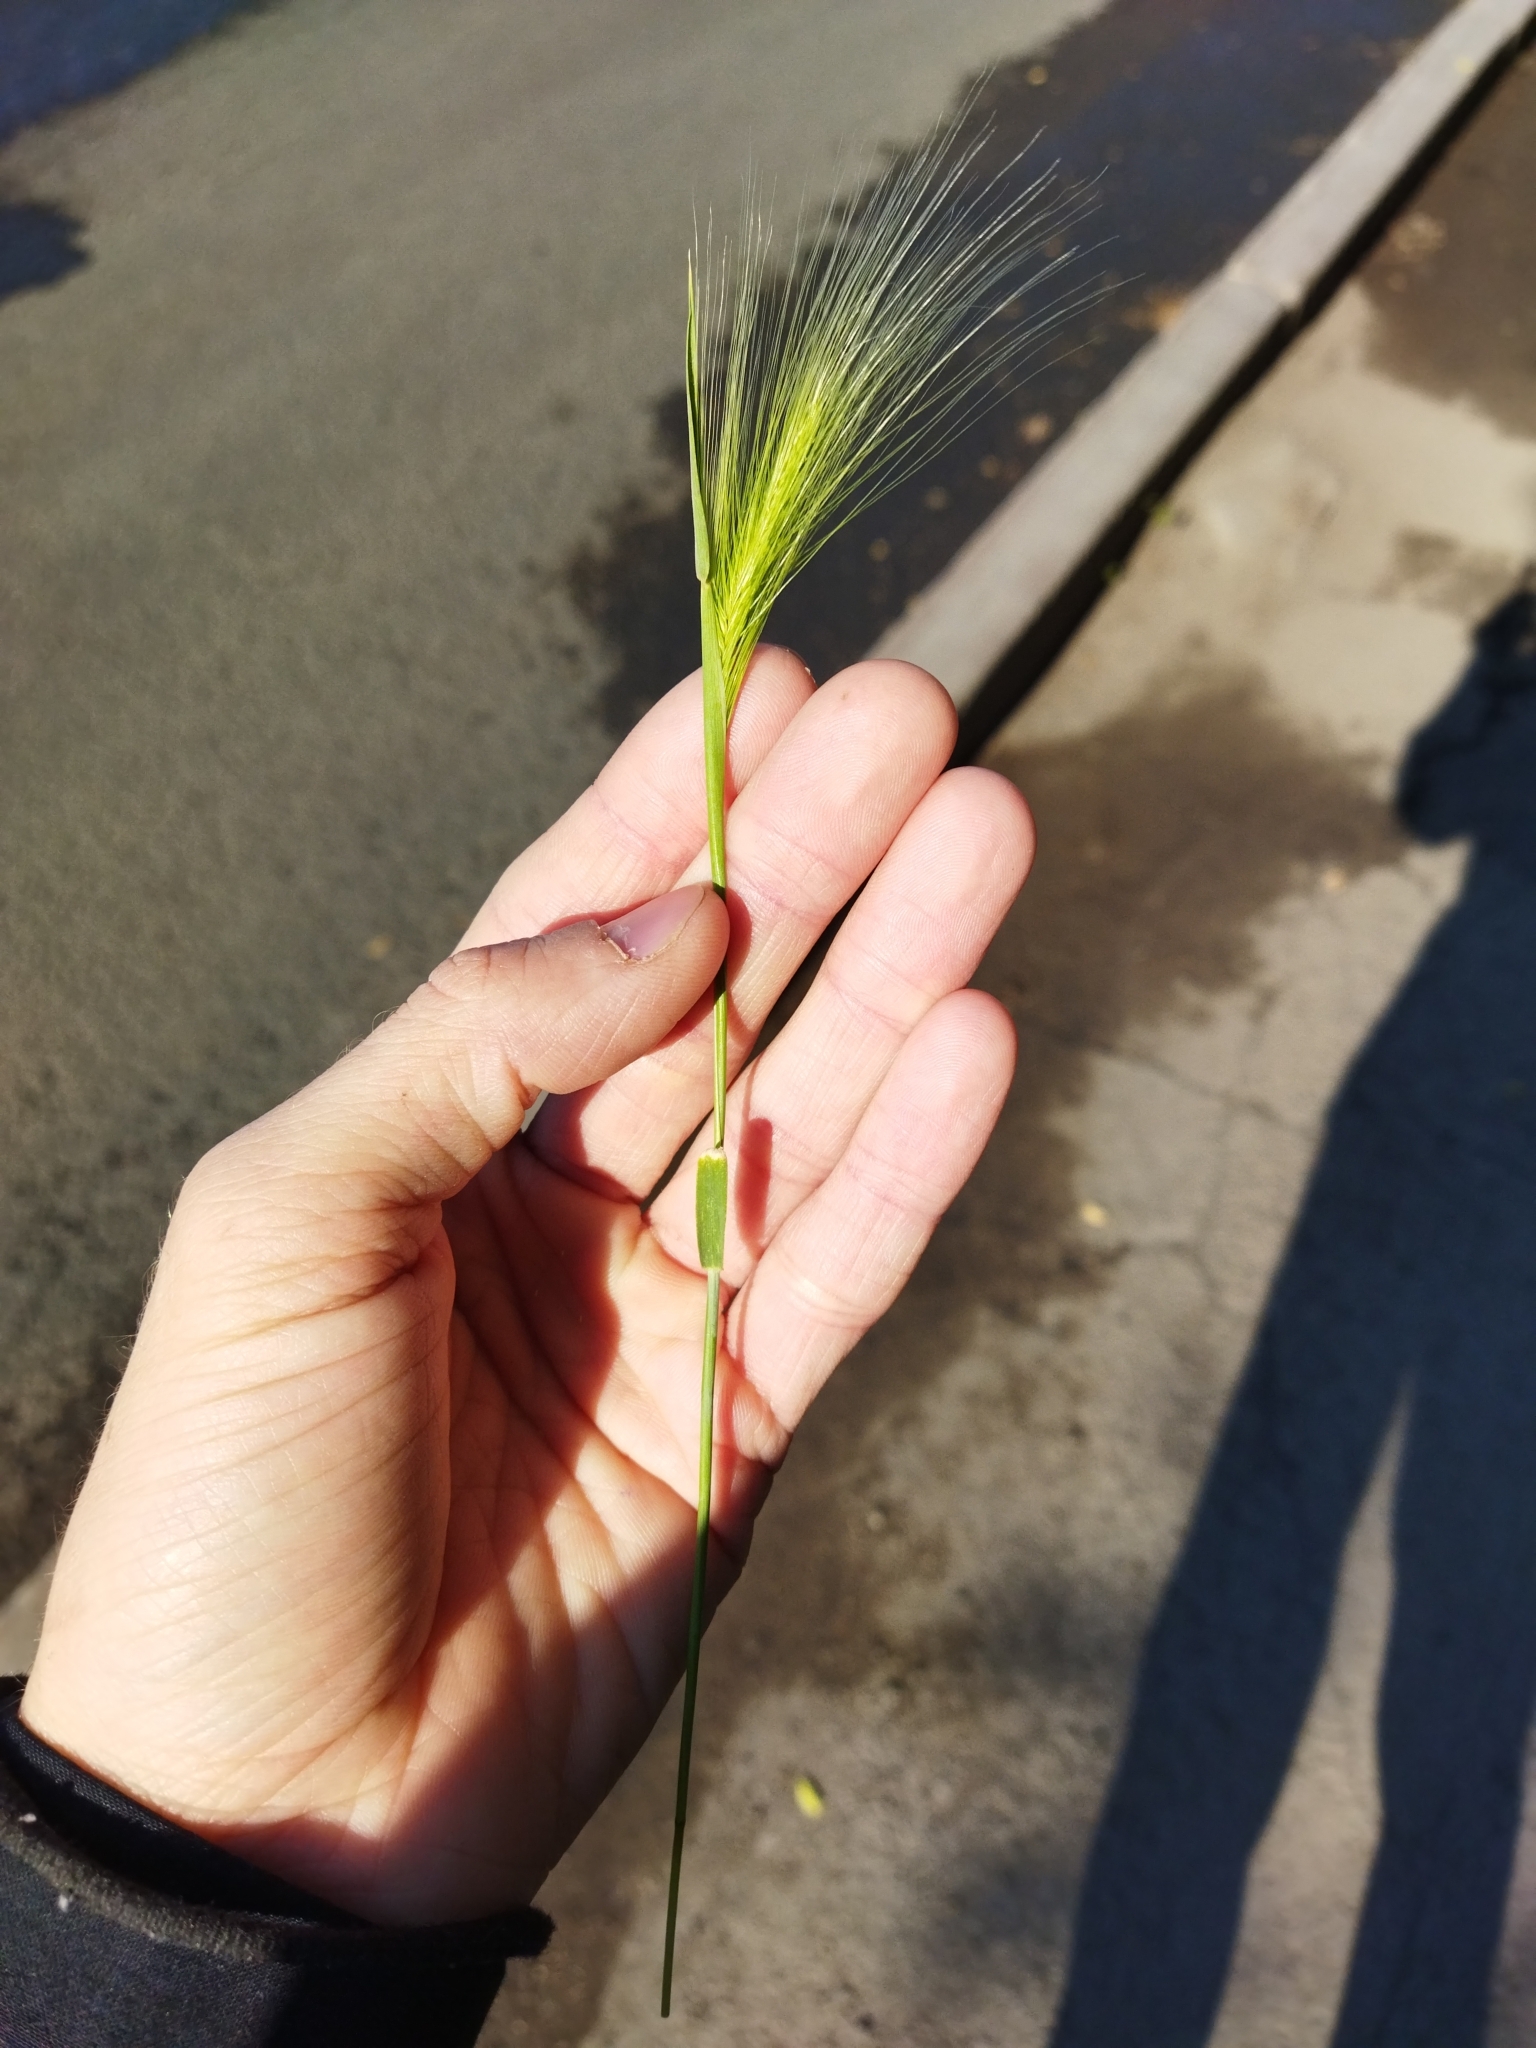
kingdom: Plantae
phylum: Tracheophyta
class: Liliopsida
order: Poales
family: Poaceae
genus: Hordeum
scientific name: Hordeum jubatum
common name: Foxtail barley
